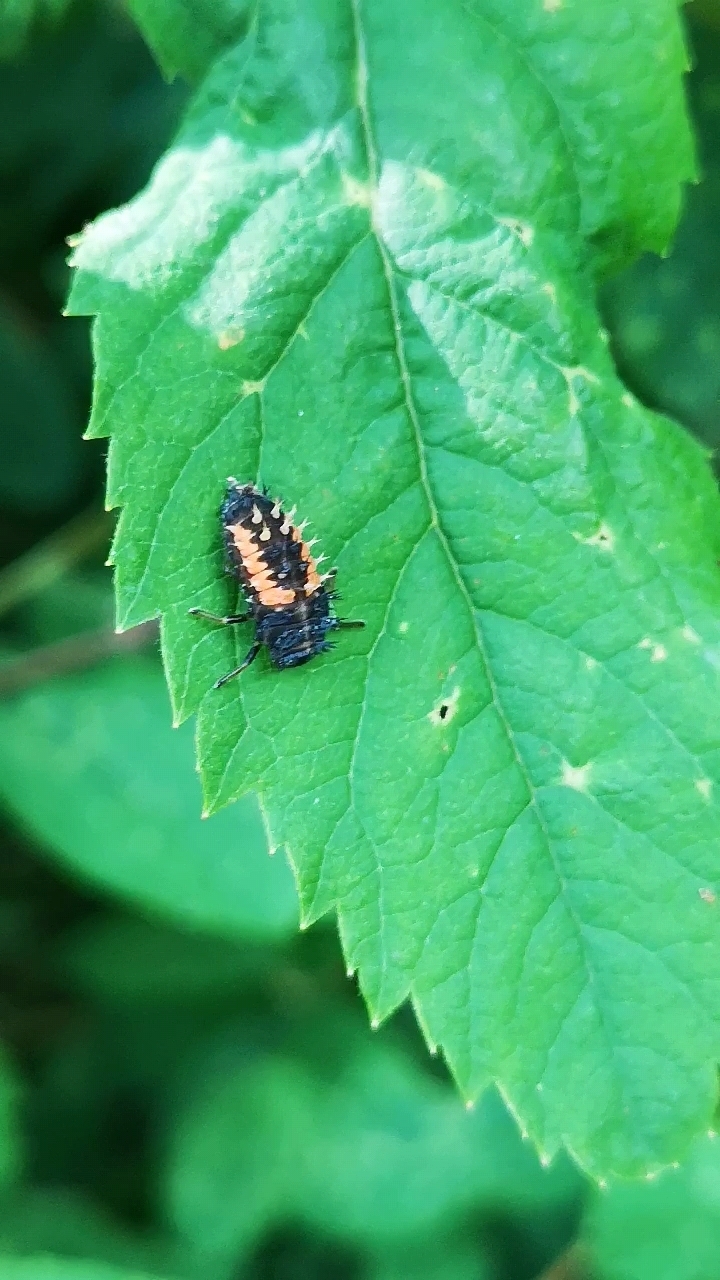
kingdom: Animalia
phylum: Arthropoda
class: Insecta
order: Coleoptera
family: Coccinellidae
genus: Harmonia
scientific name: Harmonia axyridis
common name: Harlequin ladybird
